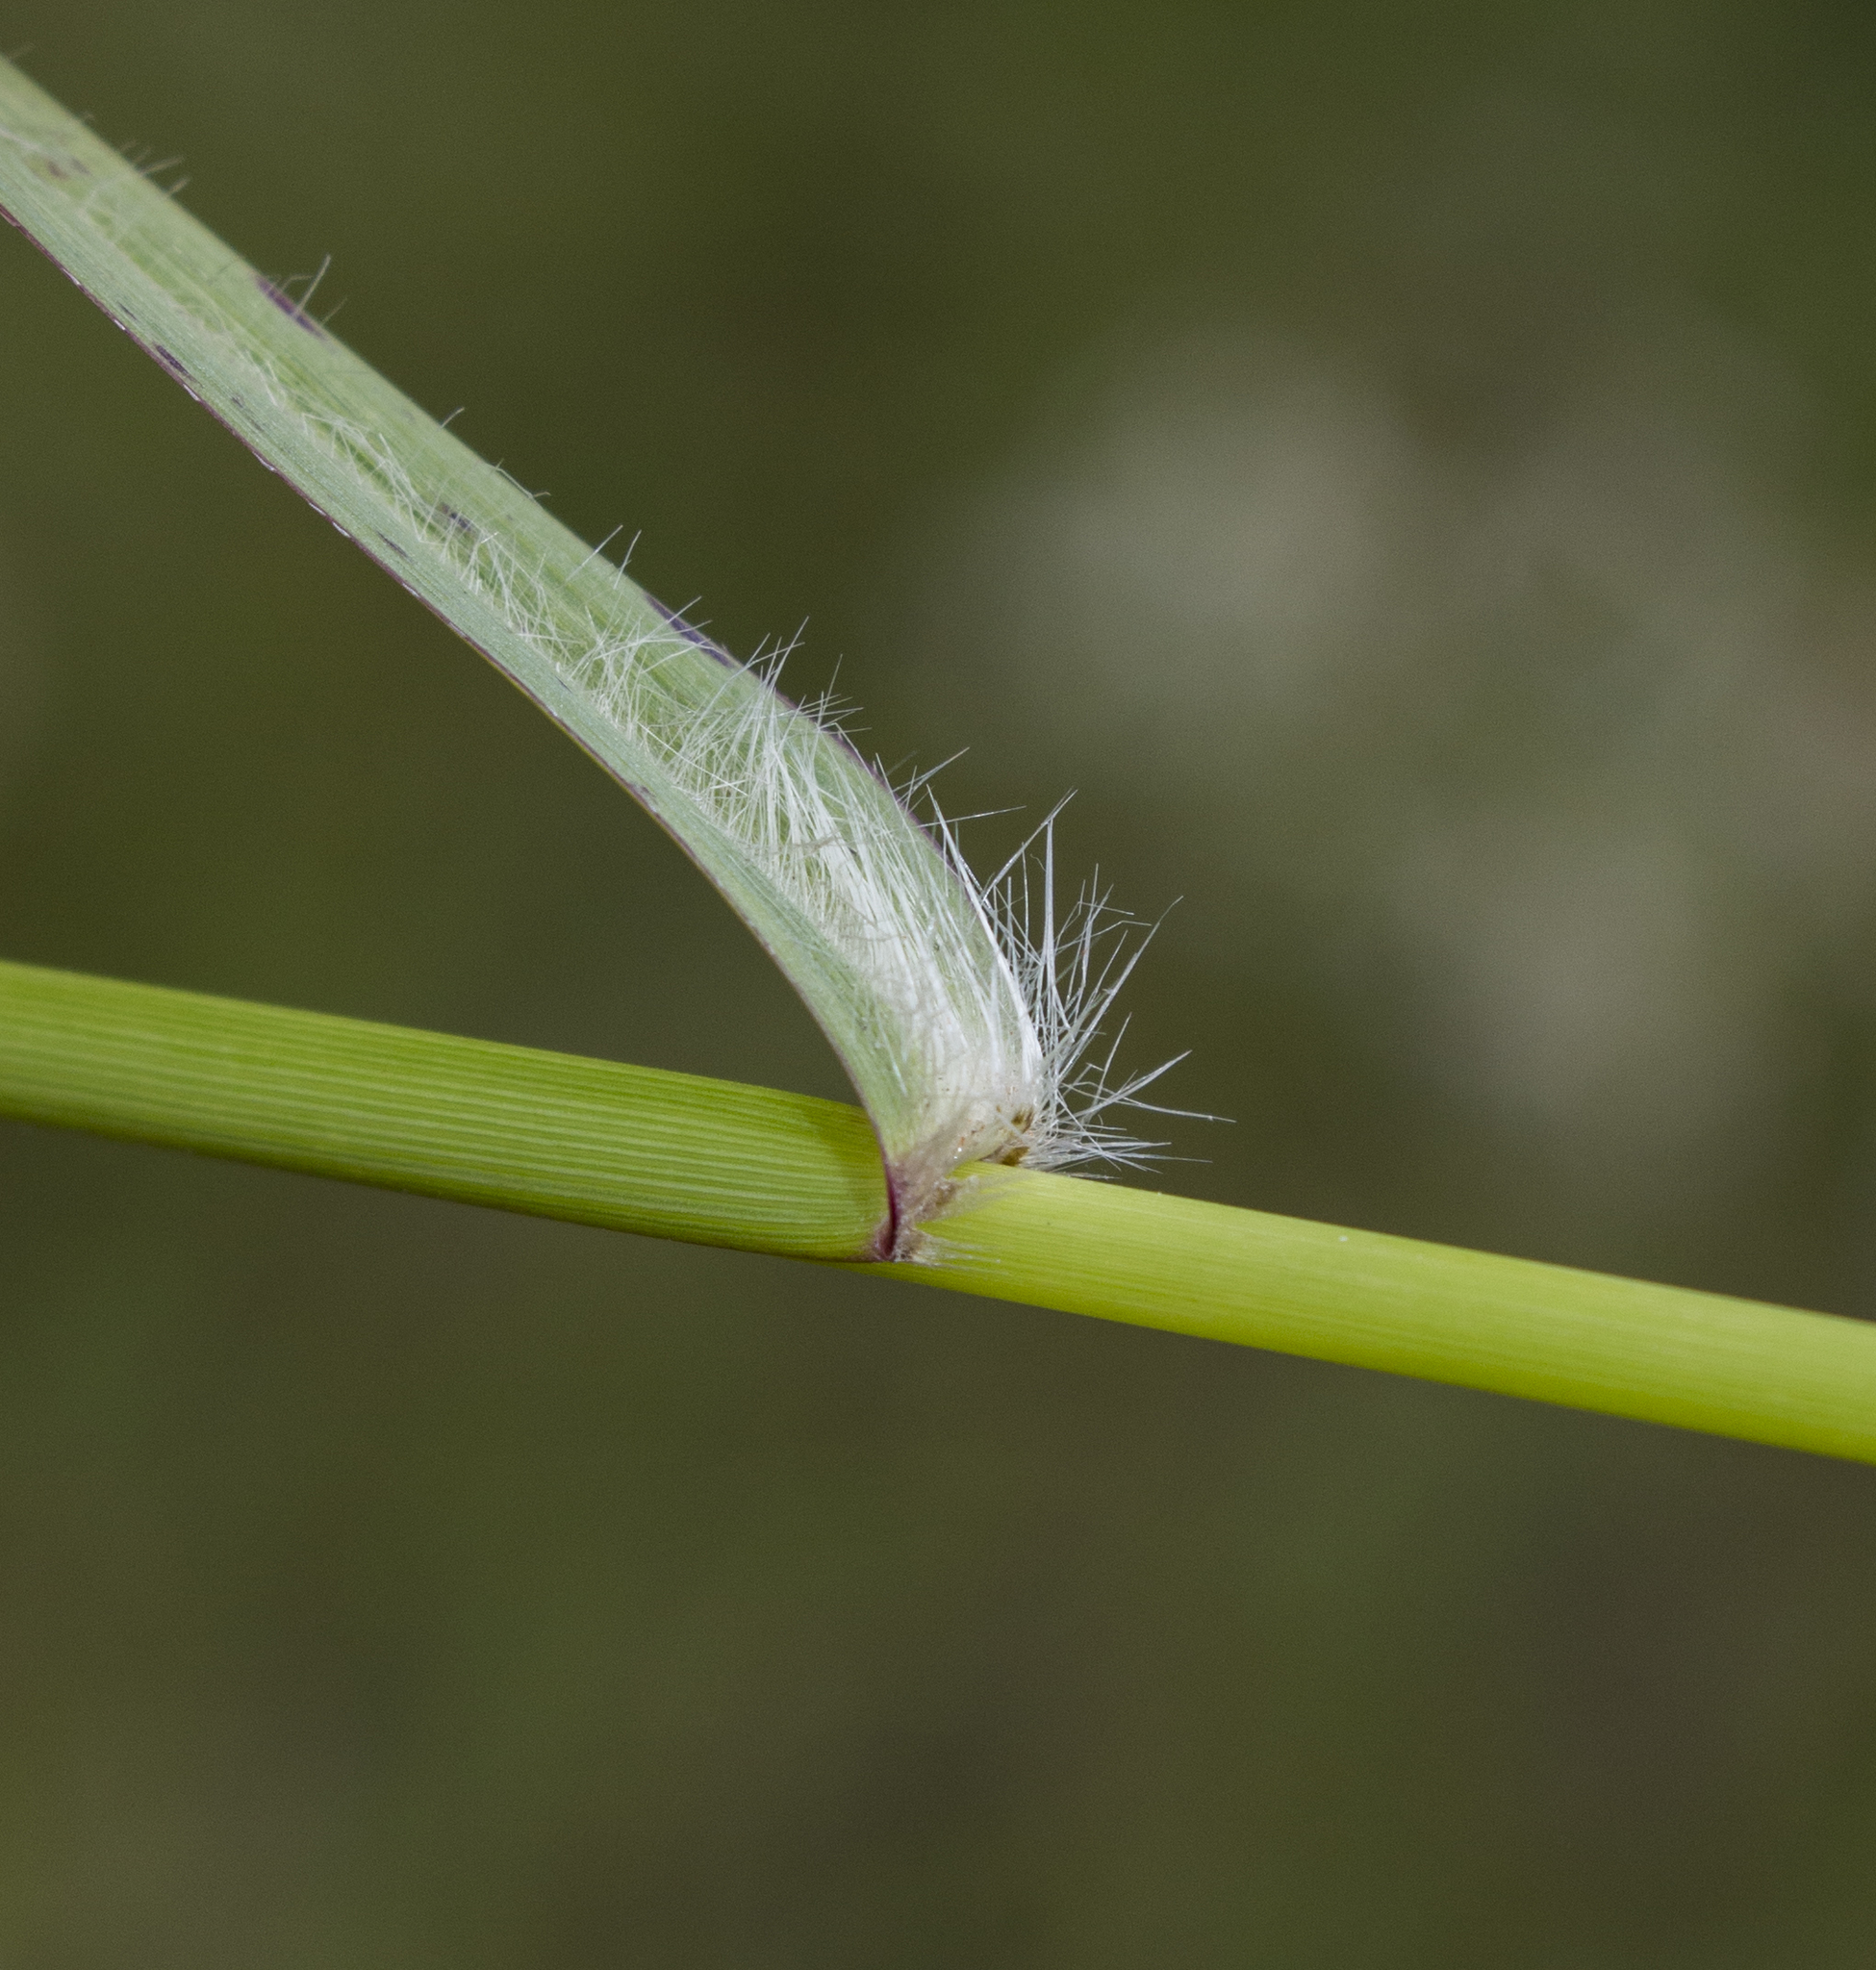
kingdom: Plantae
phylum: Tracheophyta
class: Liliopsida
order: Poales
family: Poaceae
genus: Panicum
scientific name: Panicum virgatum
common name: Switchgrass
